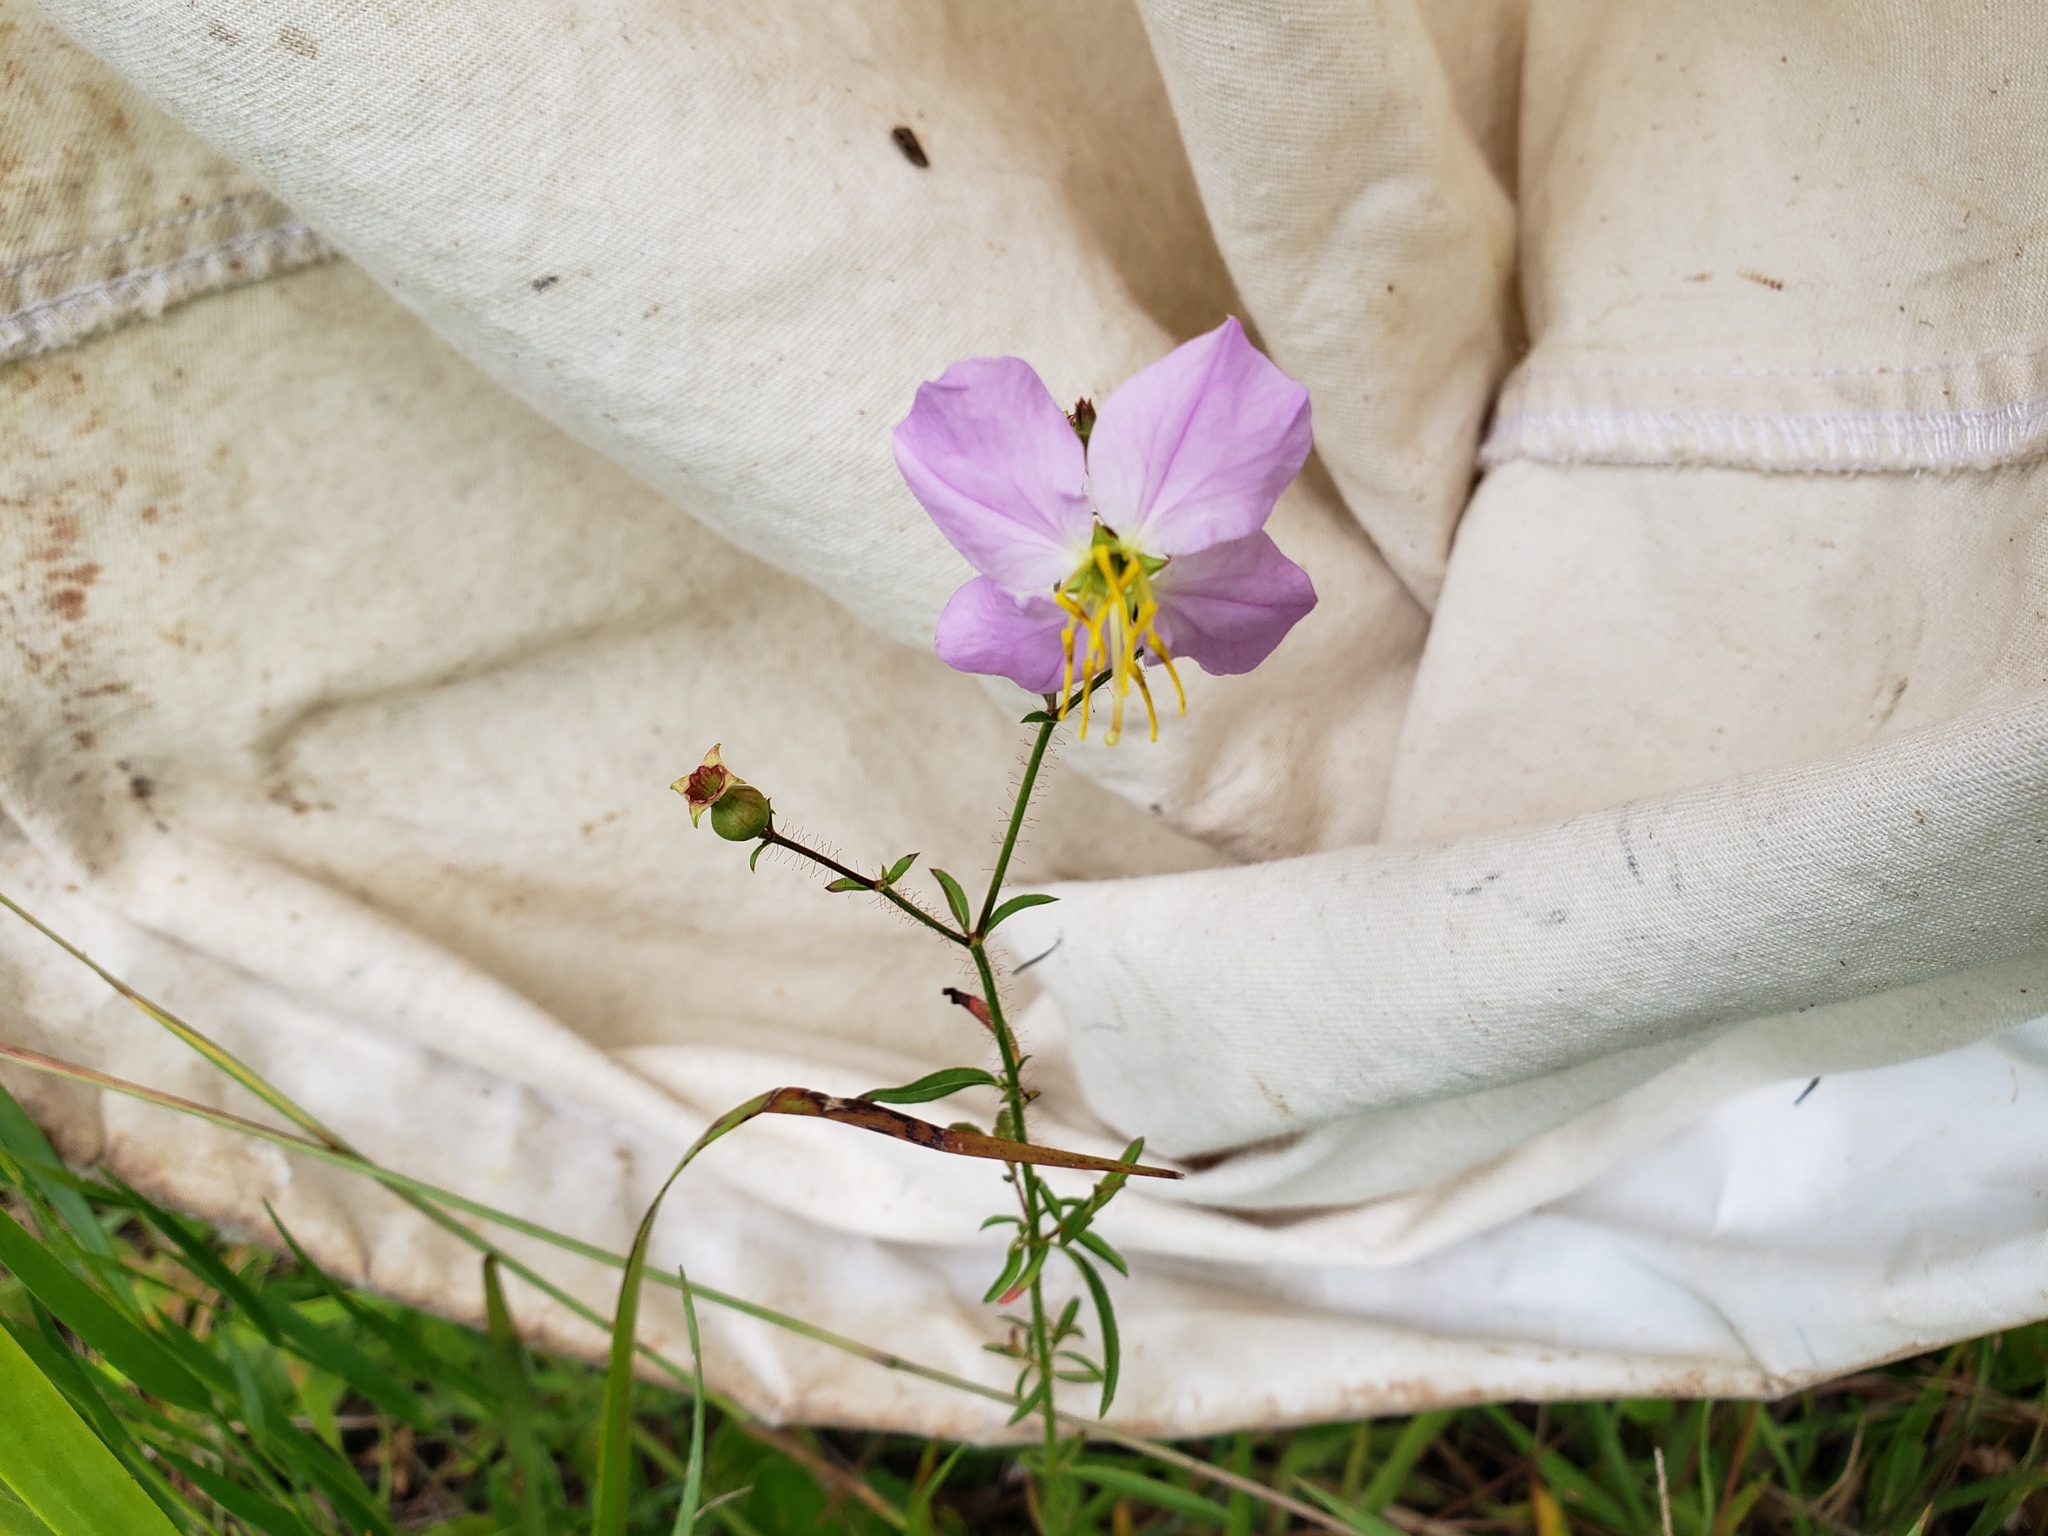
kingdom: Plantae
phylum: Tracheophyta
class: Magnoliopsida
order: Myrtales
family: Melastomataceae
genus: Rhexia
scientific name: Rhexia mariana
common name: Dull meadow-pitcher
